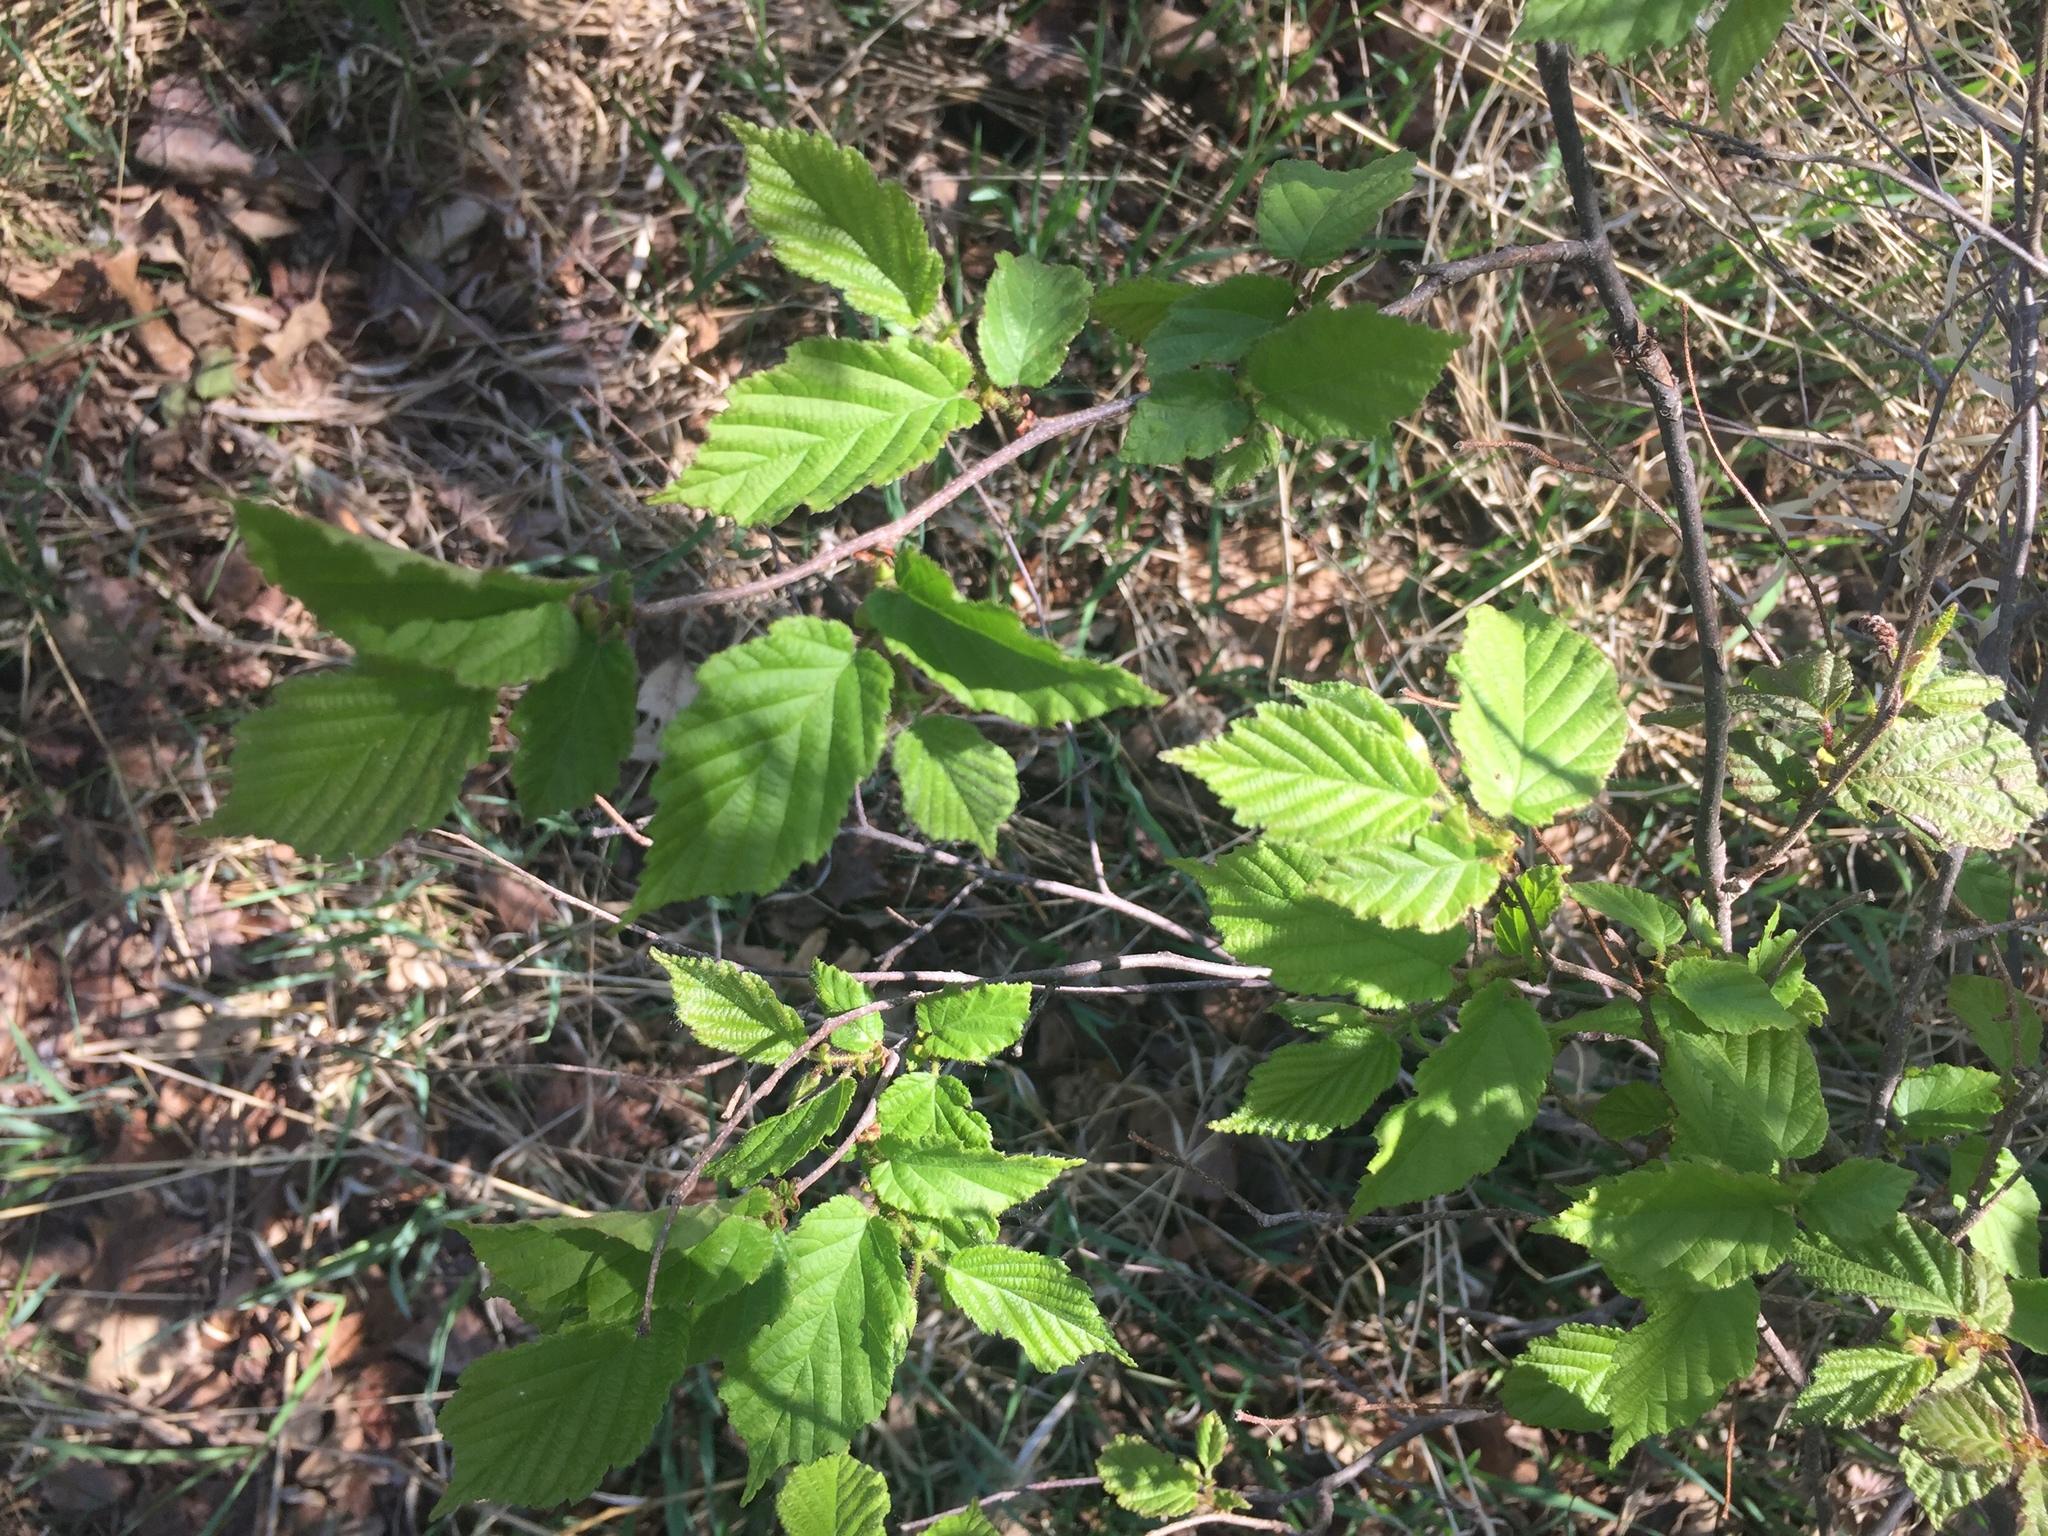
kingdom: Plantae
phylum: Tracheophyta
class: Magnoliopsida
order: Fagales
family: Betulaceae
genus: Corylus
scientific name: Corylus cornuta
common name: Beaked hazel
